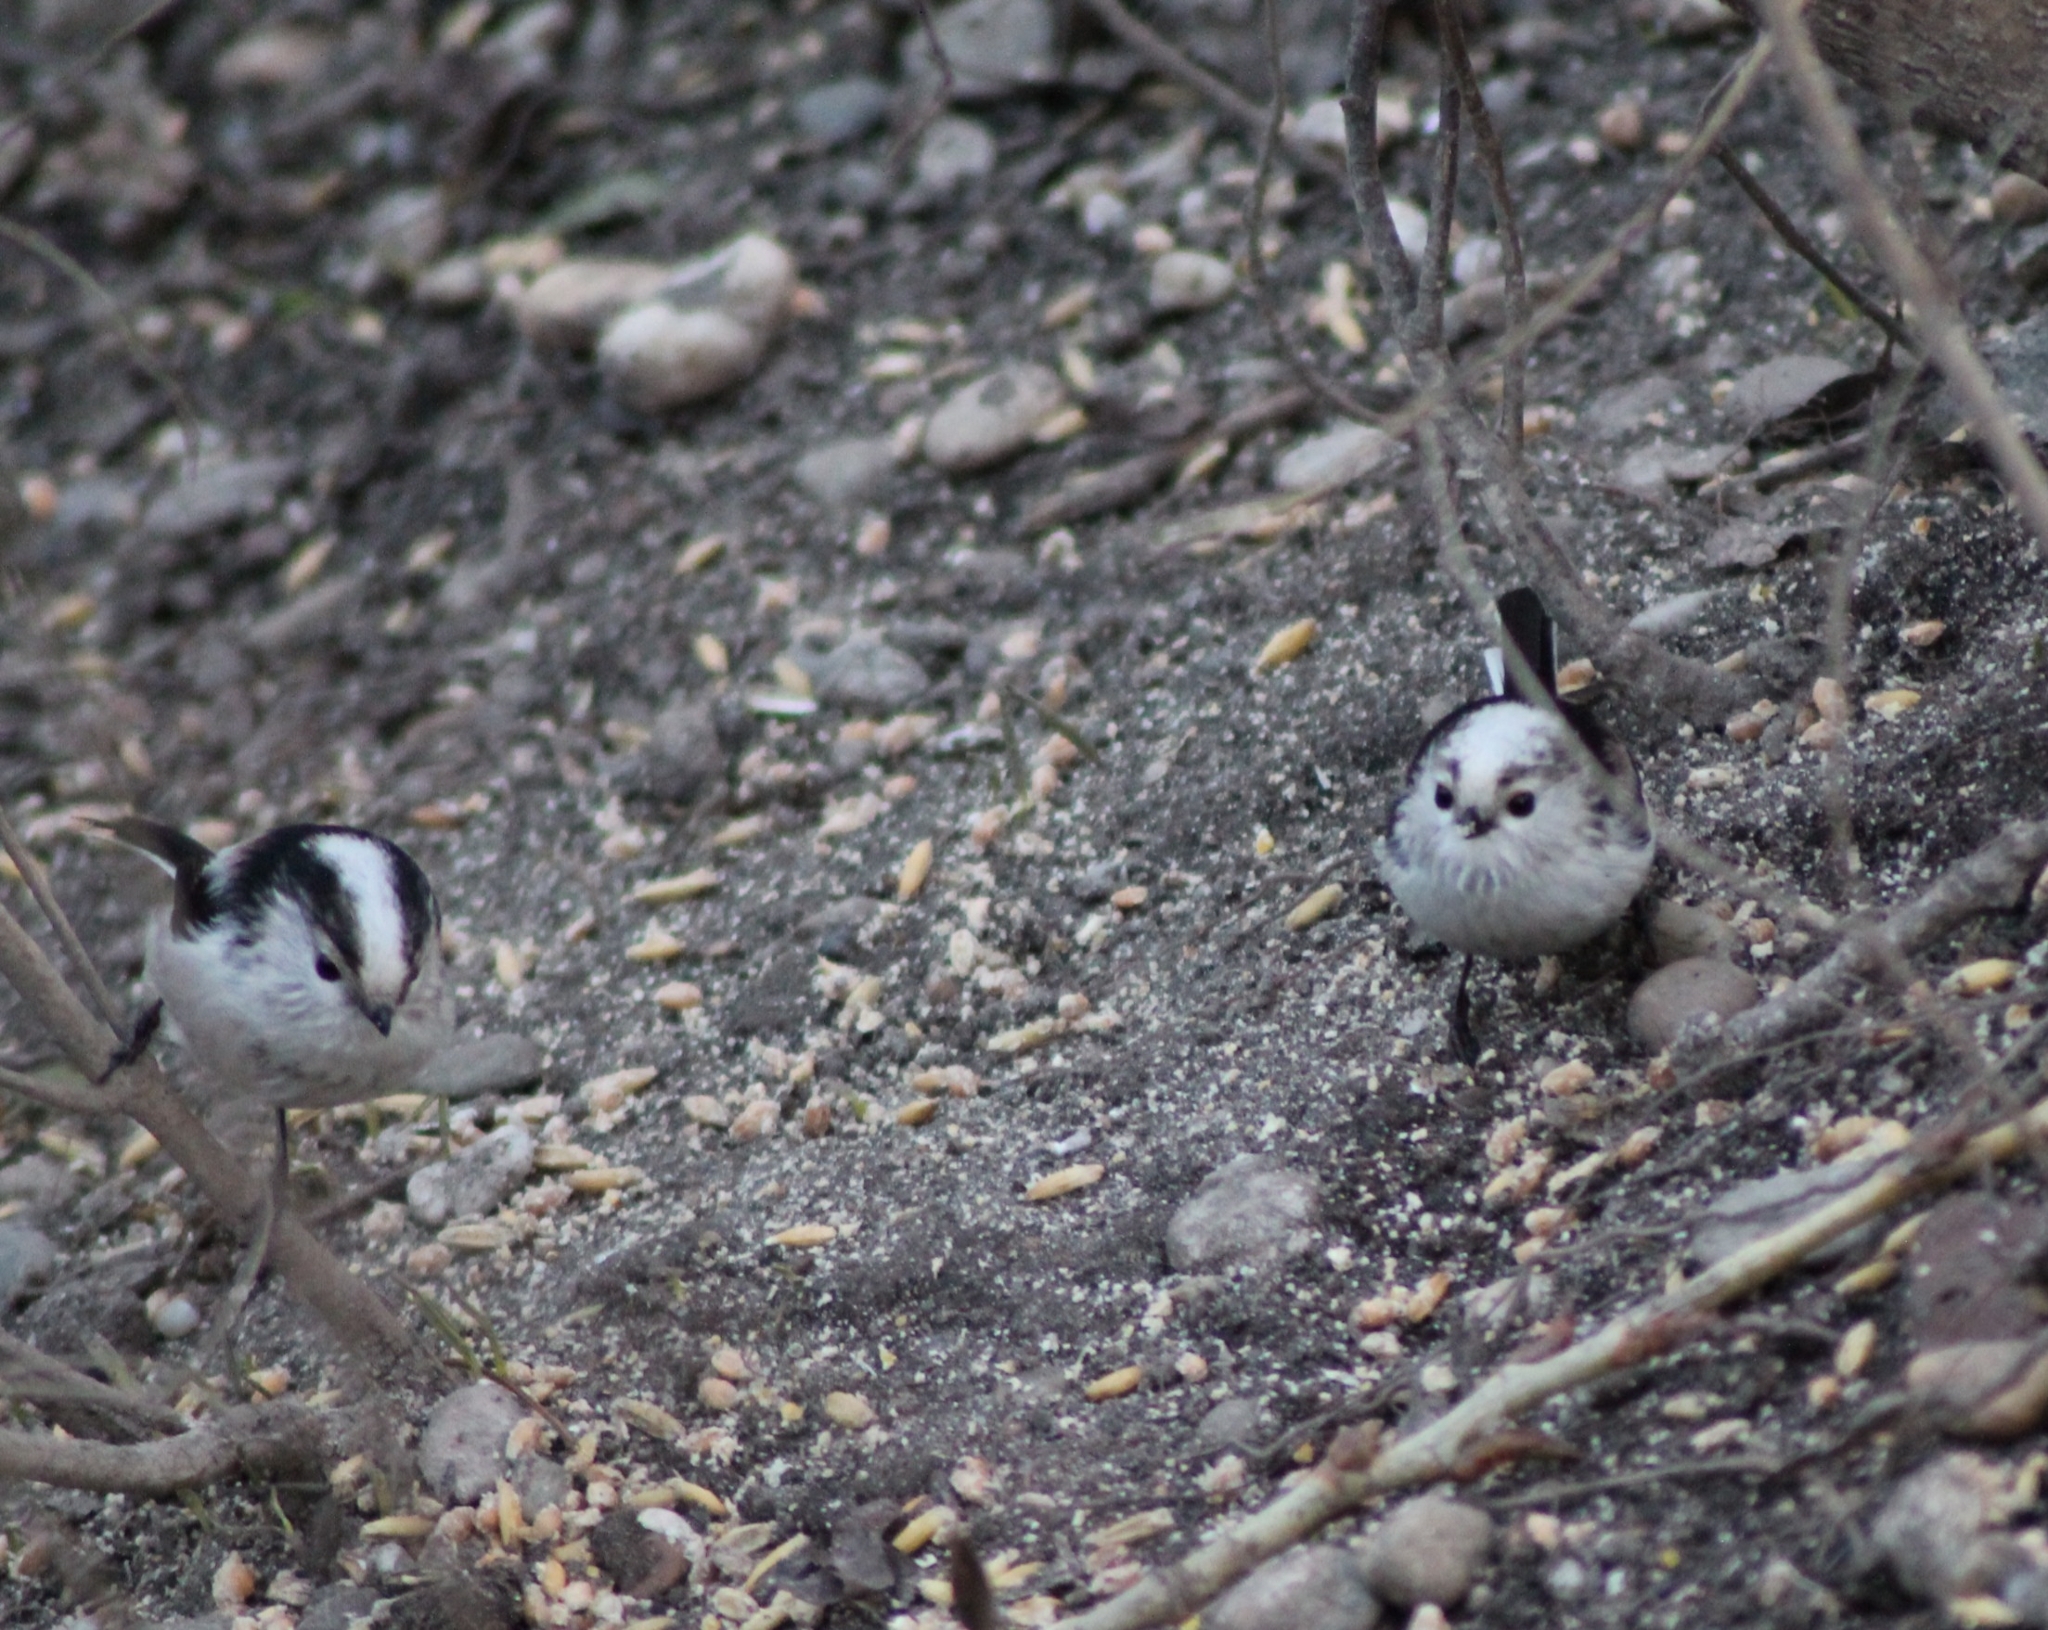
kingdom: Animalia
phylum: Chordata
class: Aves
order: Passeriformes
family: Aegithalidae
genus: Aegithalos
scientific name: Aegithalos caudatus
